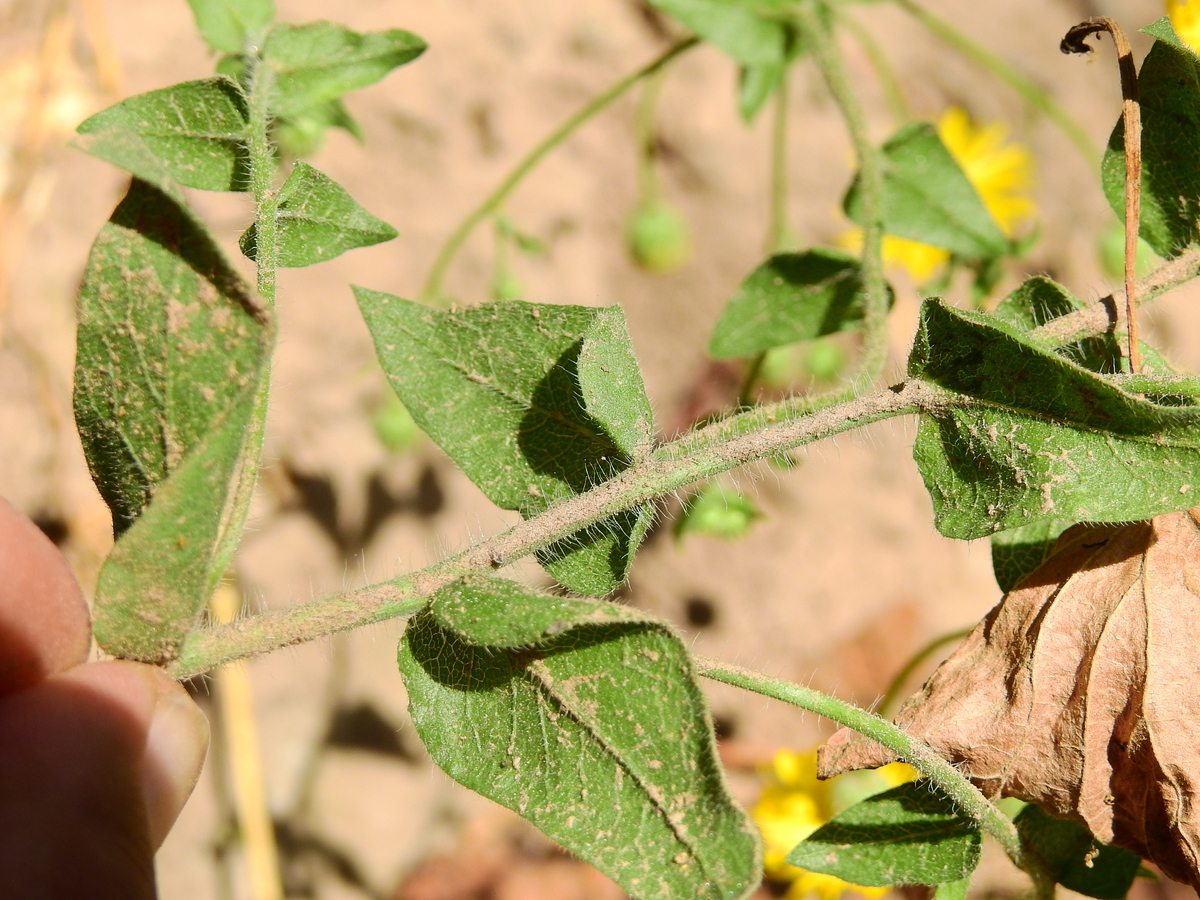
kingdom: Plantae
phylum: Tracheophyta
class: Magnoliopsida
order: Asterales
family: Asteraceae
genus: Heterotheca
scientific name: Heterotheca subaxillaris
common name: Camphorweed
